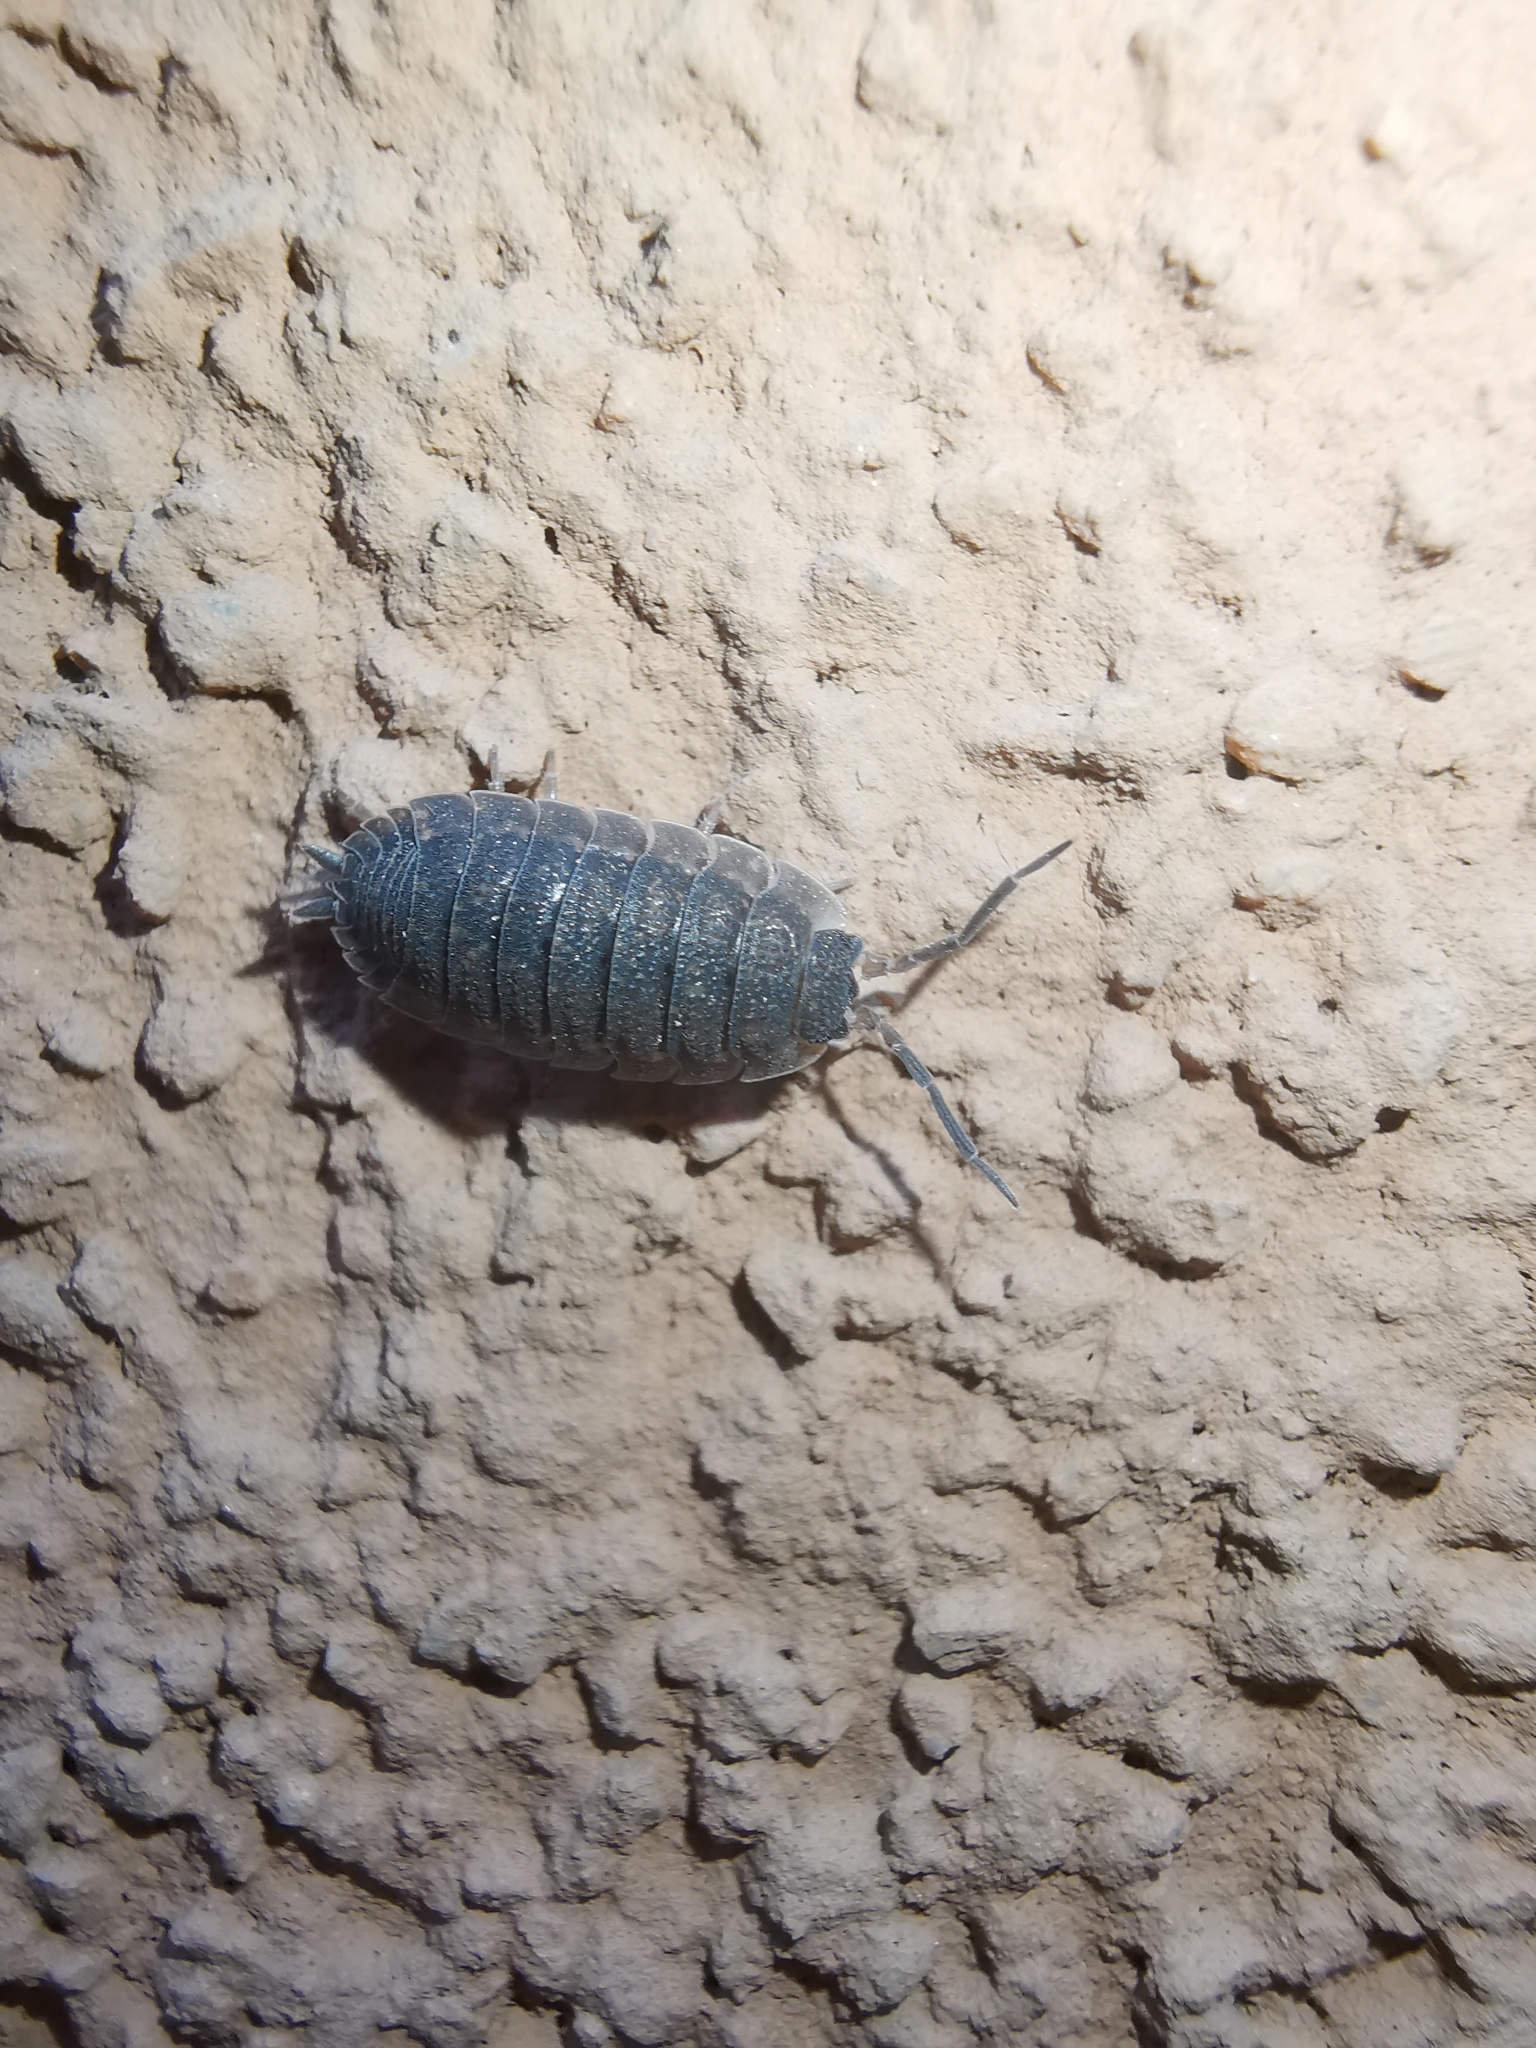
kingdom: Animalia
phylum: Arthropoda
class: Malacostraca
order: Isopoda
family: Porcellionidae
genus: Porcellio
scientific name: Porcellio scaber
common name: Common rough woodlouse
